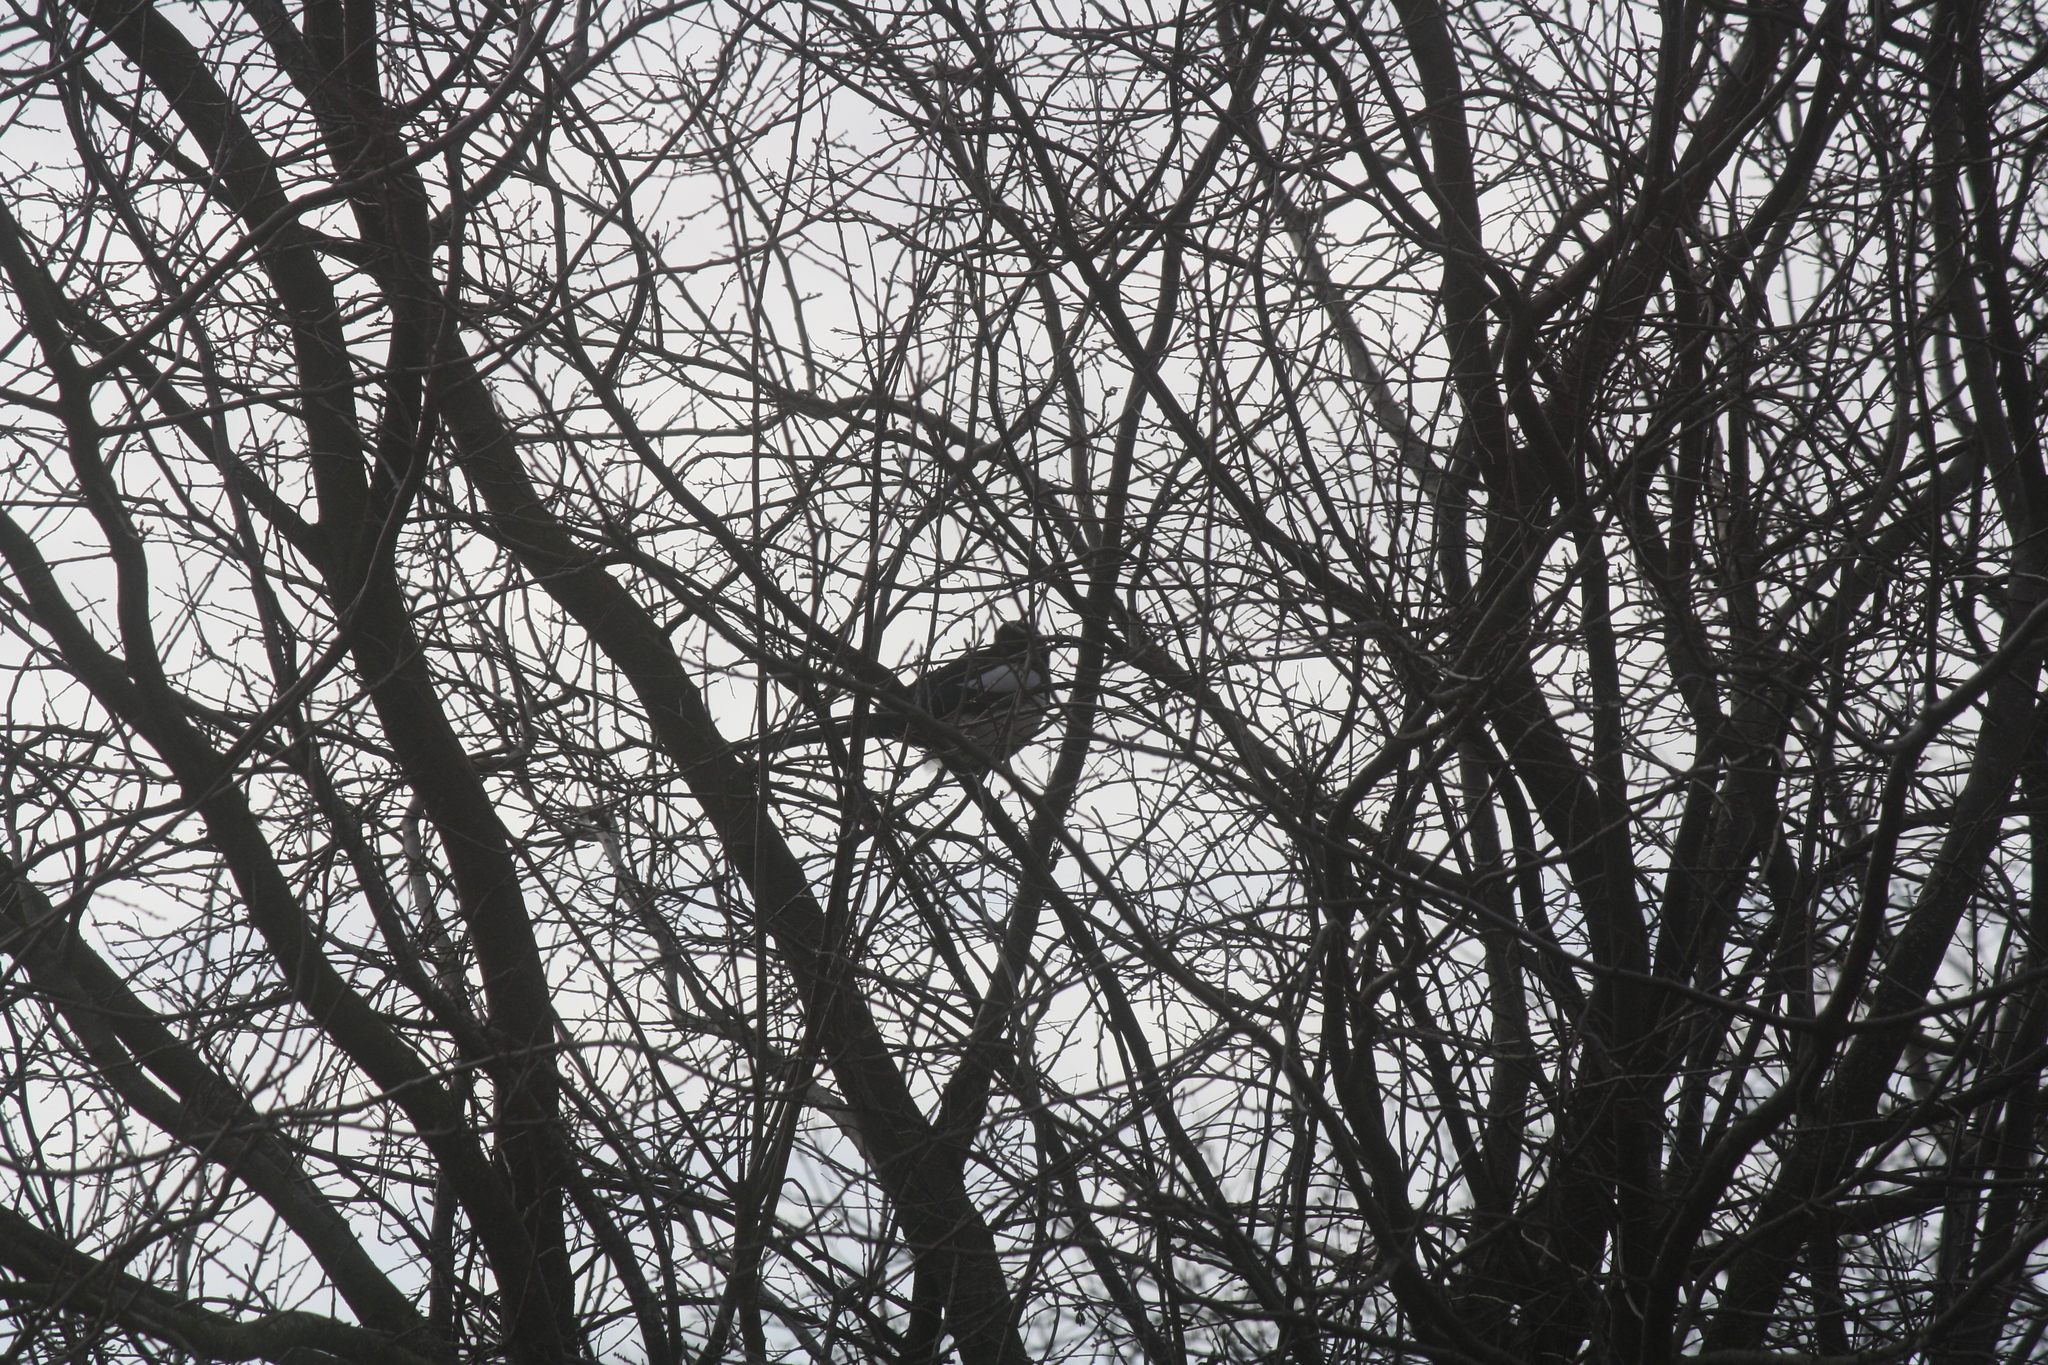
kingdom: Animalia
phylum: Chordata
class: Aves
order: Passeriformes
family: Corvidae
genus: Pica
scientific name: Pica pica
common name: Eurasian magpie
